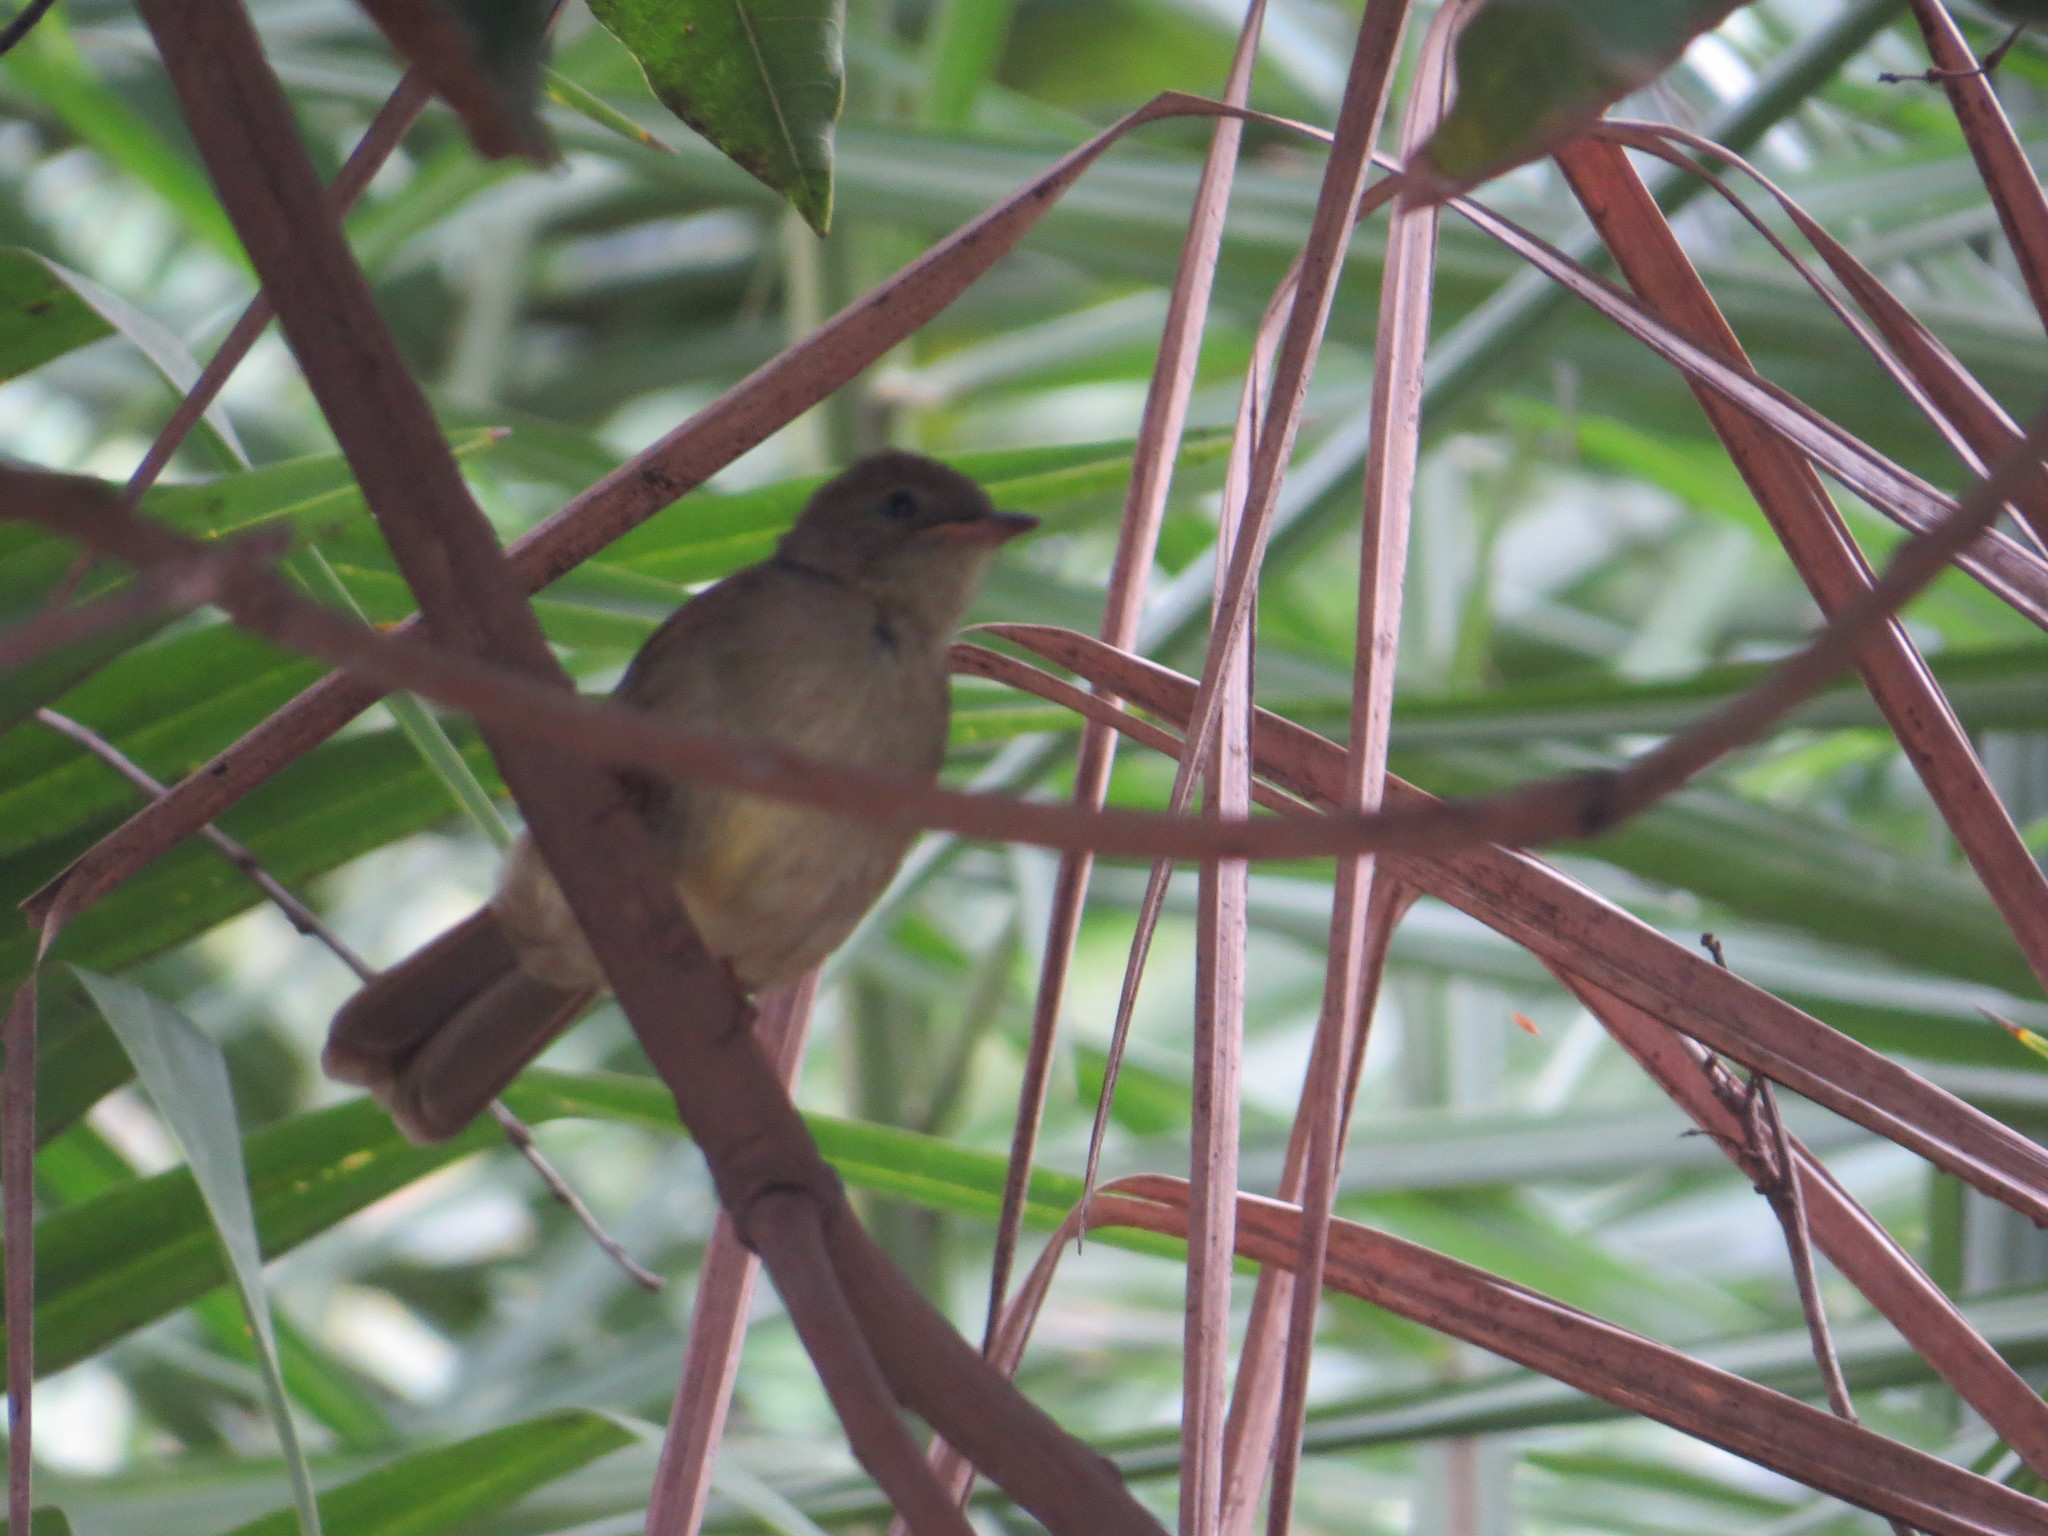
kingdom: Animalia
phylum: Chordata
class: Aves
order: Passeriformes
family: Pycnonotidae
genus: Eurillas
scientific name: Eurillas virens
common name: Little greenbul
